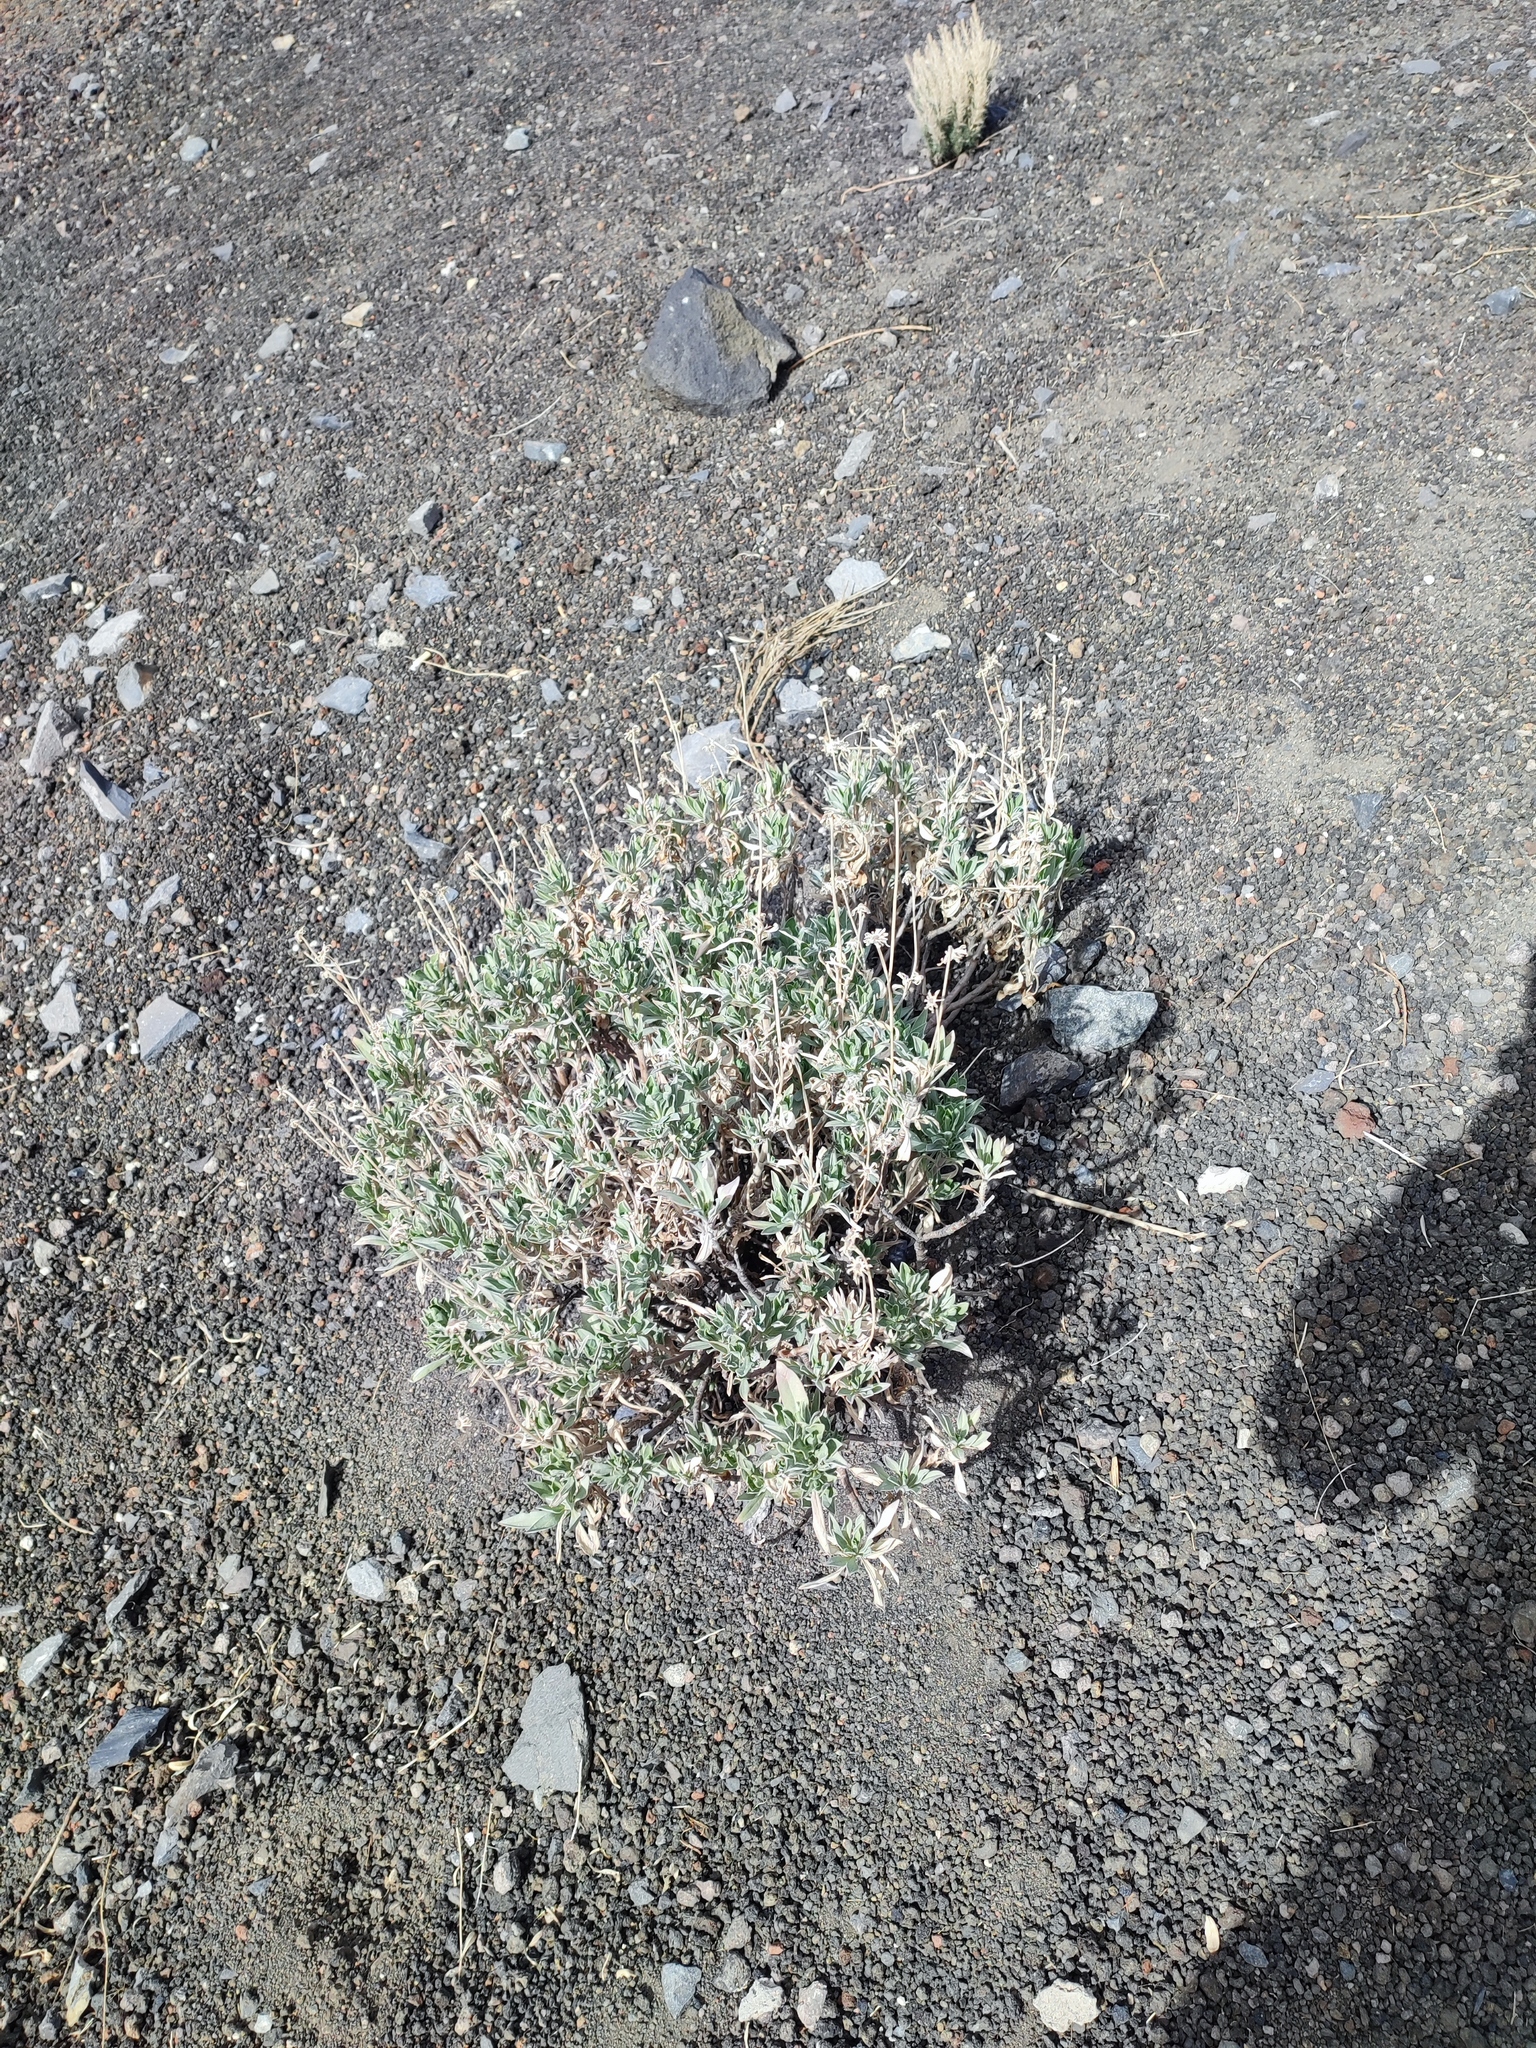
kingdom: Plantae
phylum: Tracheophyta
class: Magnoliopsida
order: Dipsacales
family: Caprifoliaceae
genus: Pterocephalus
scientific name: Pterocephalus lasiospermus
